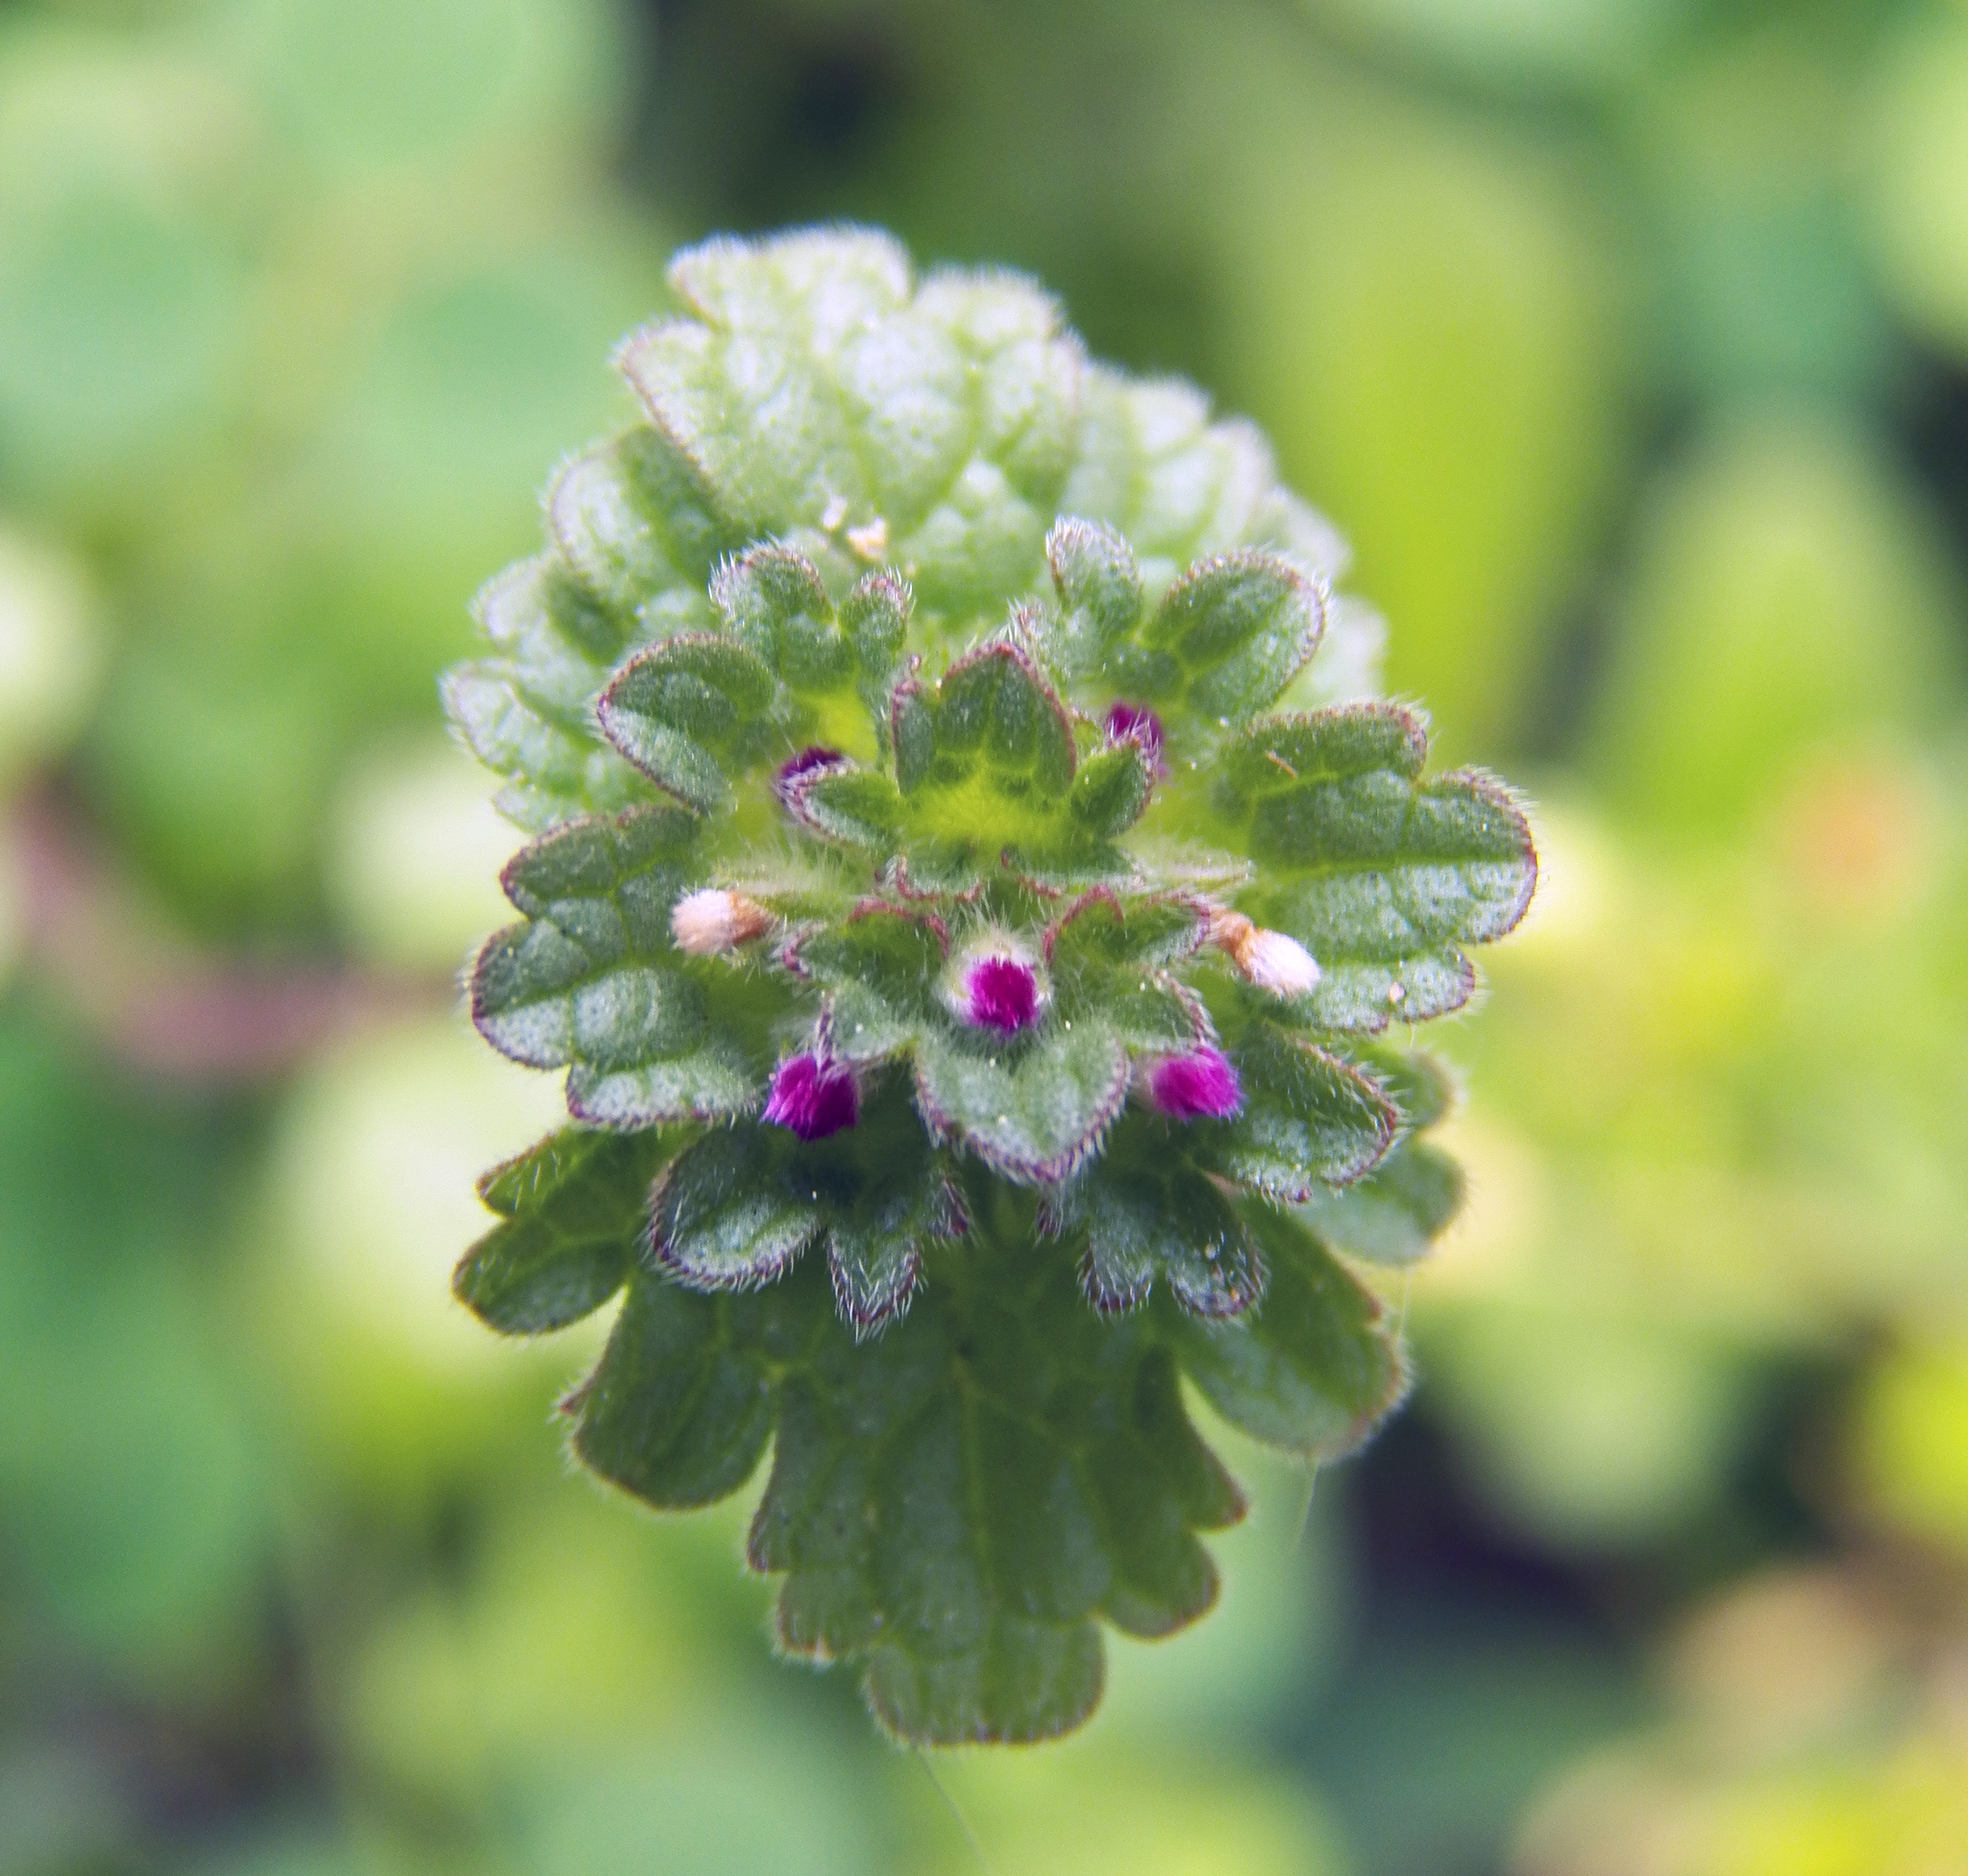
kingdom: Plantae
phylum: Tracheophyta
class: Magnoliopsida
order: Lamiales
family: Lamiaceae
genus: Lamium
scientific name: Lamium amplexicaule
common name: Henbit dead-nettle
